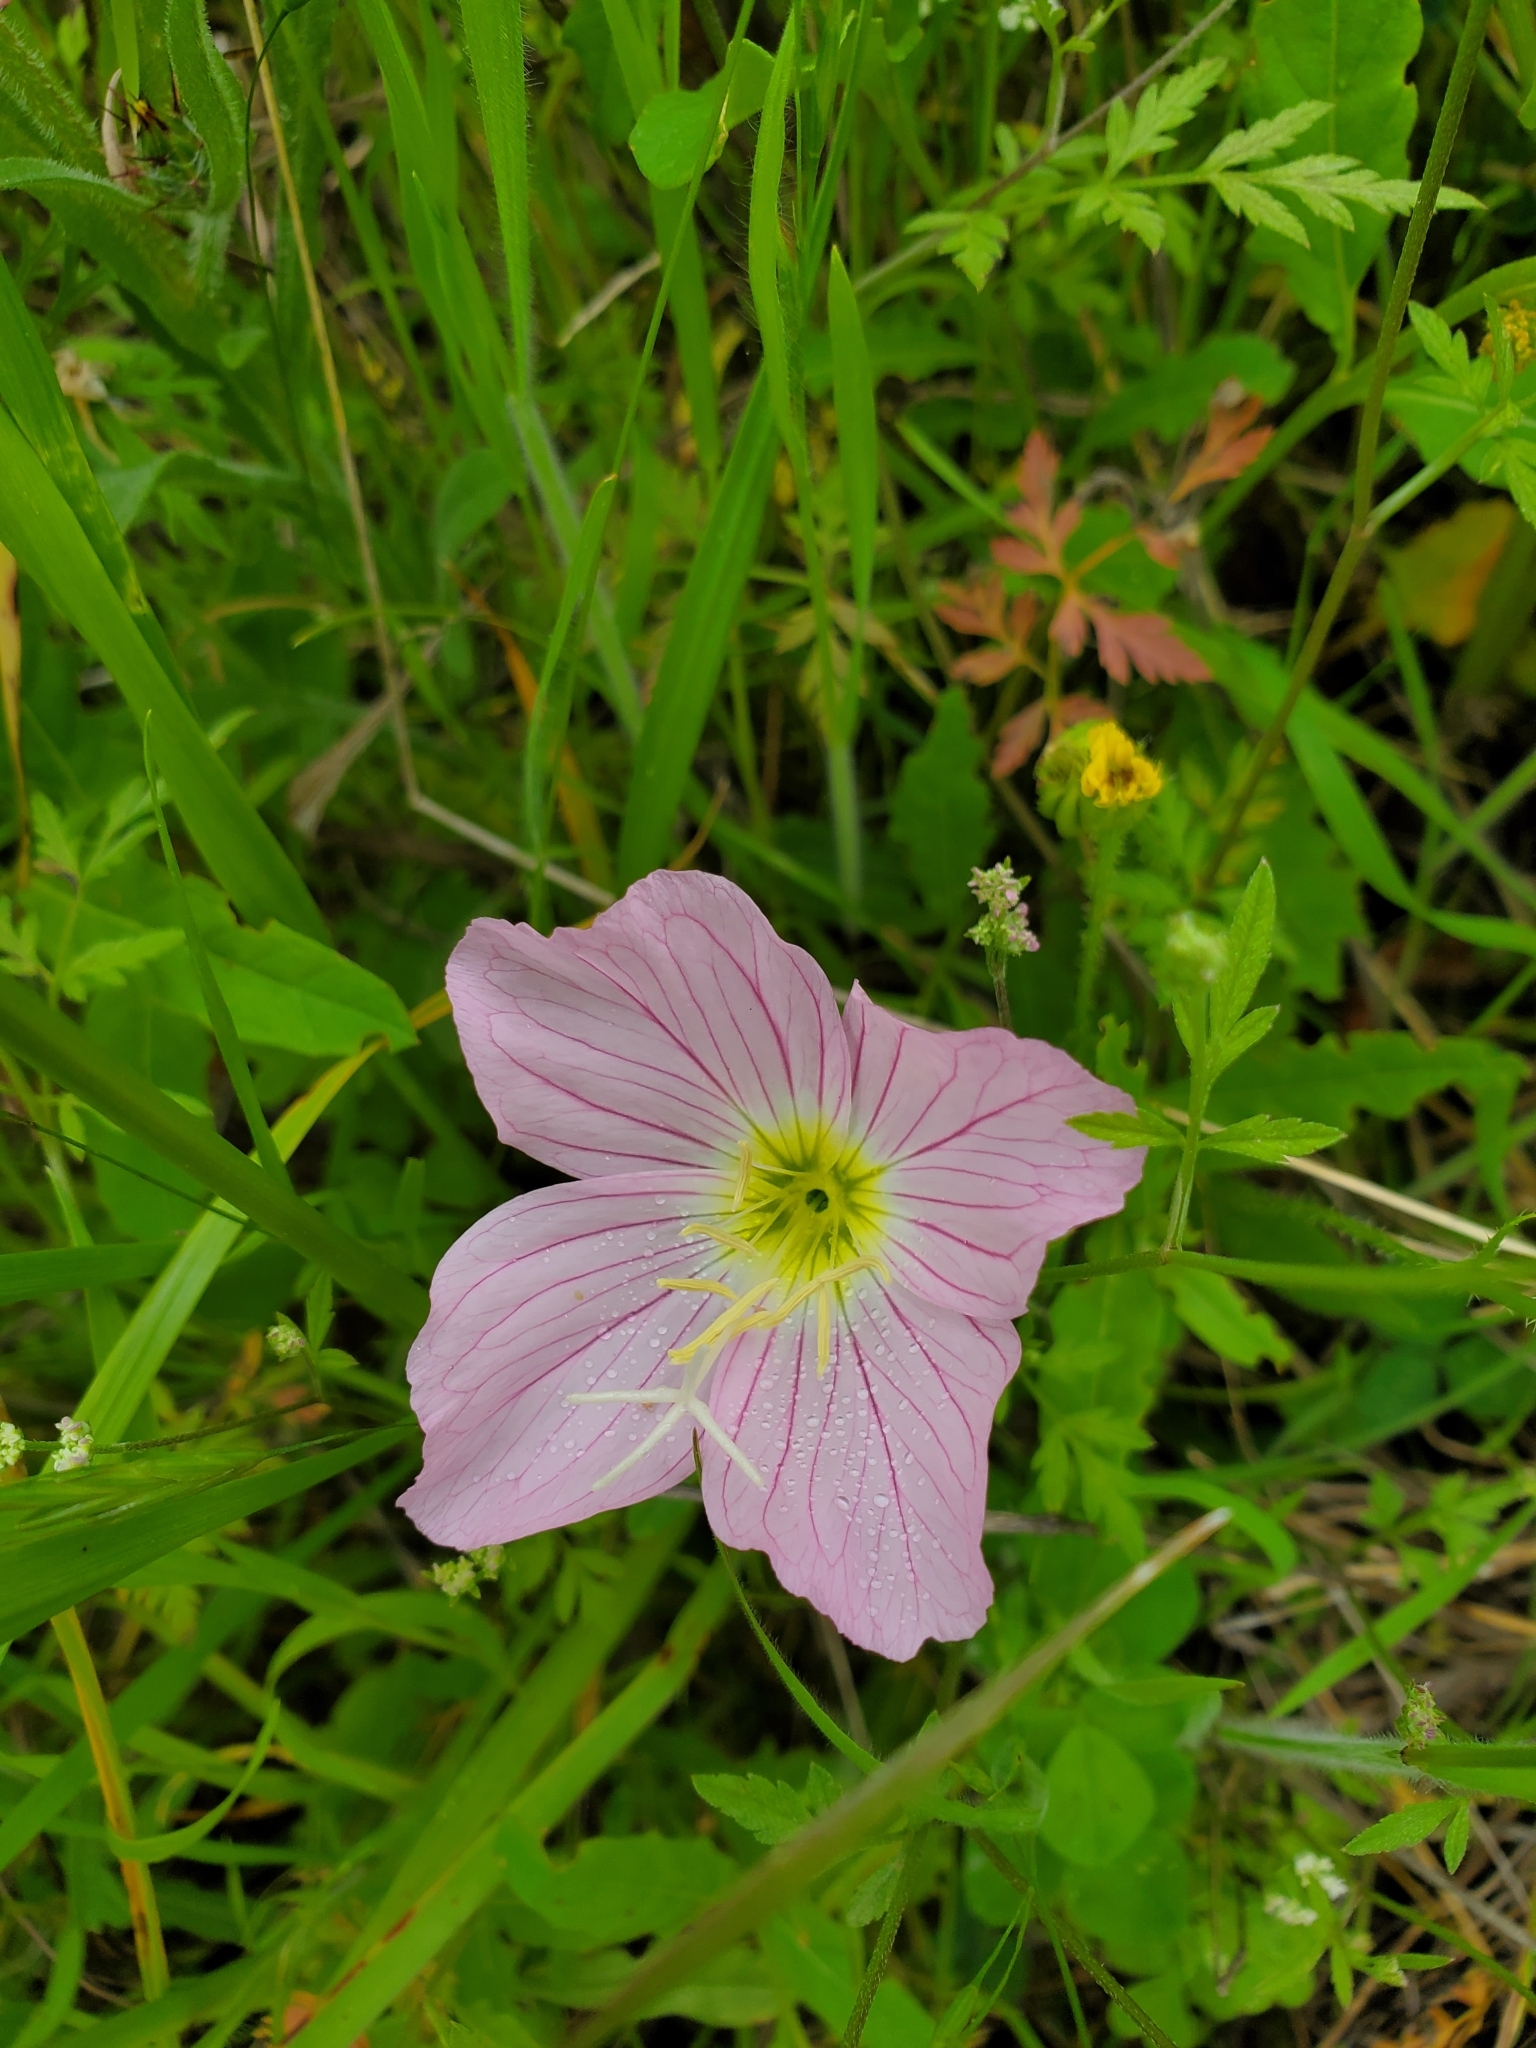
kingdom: Plantae
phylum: Tracheophyta
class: Magnoliopsida
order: Myrtales
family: Onagraceae
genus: Oenothera
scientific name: Oenothera speciosa
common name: White evening-primrose
